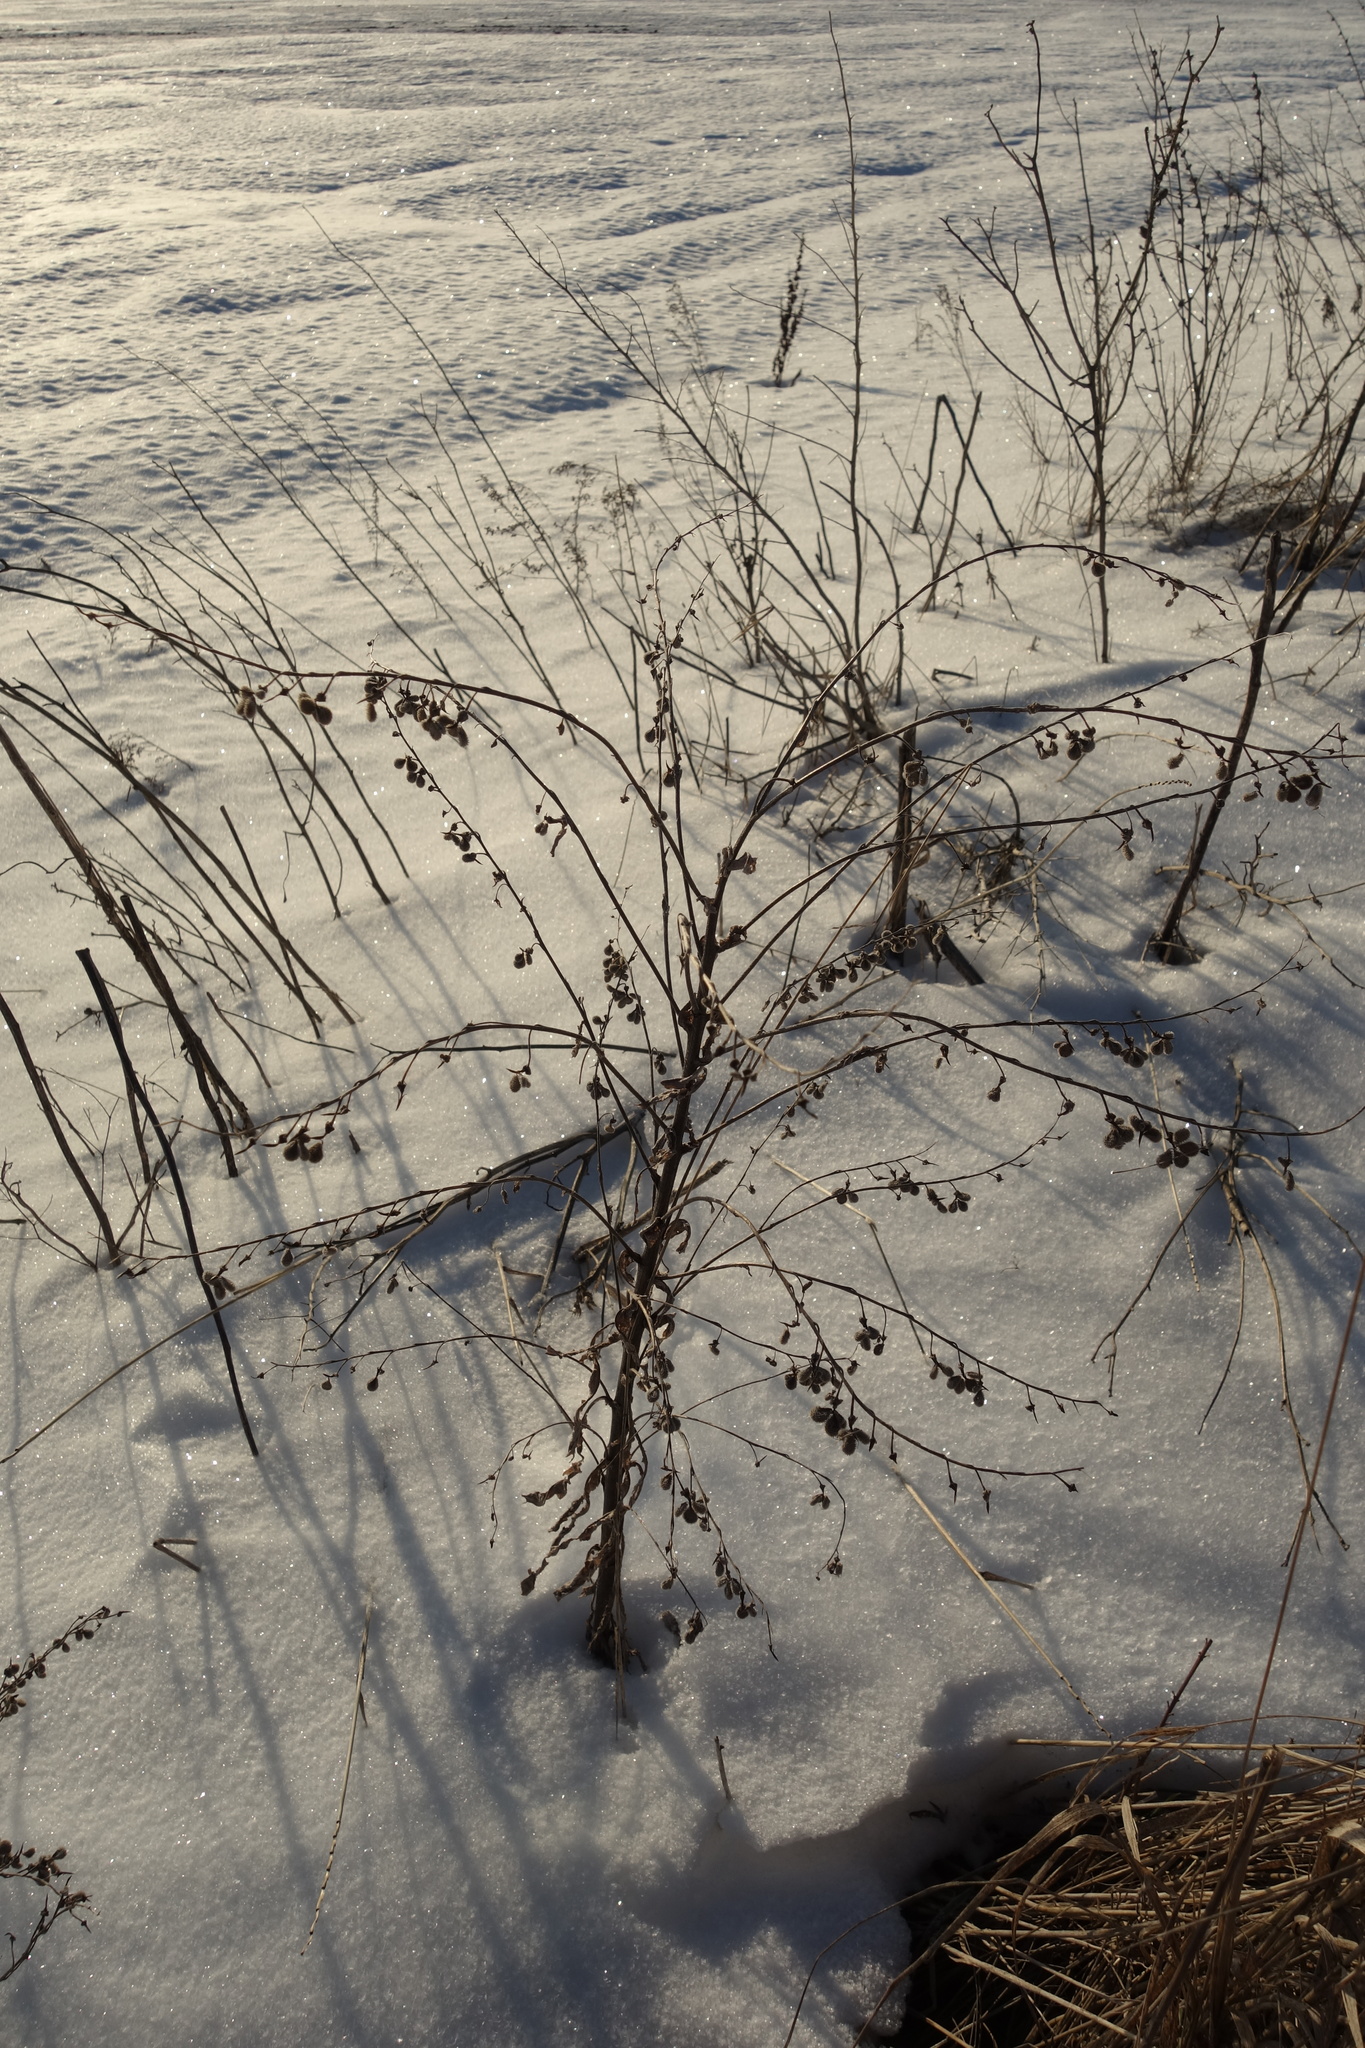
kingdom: Plantae
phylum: Tracheophyta
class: Magnoliopsida
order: Boraginales
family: Boraginaceae
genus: Cynoglossum
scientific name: Cynoglossum officinale
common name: Hound's-tongue
